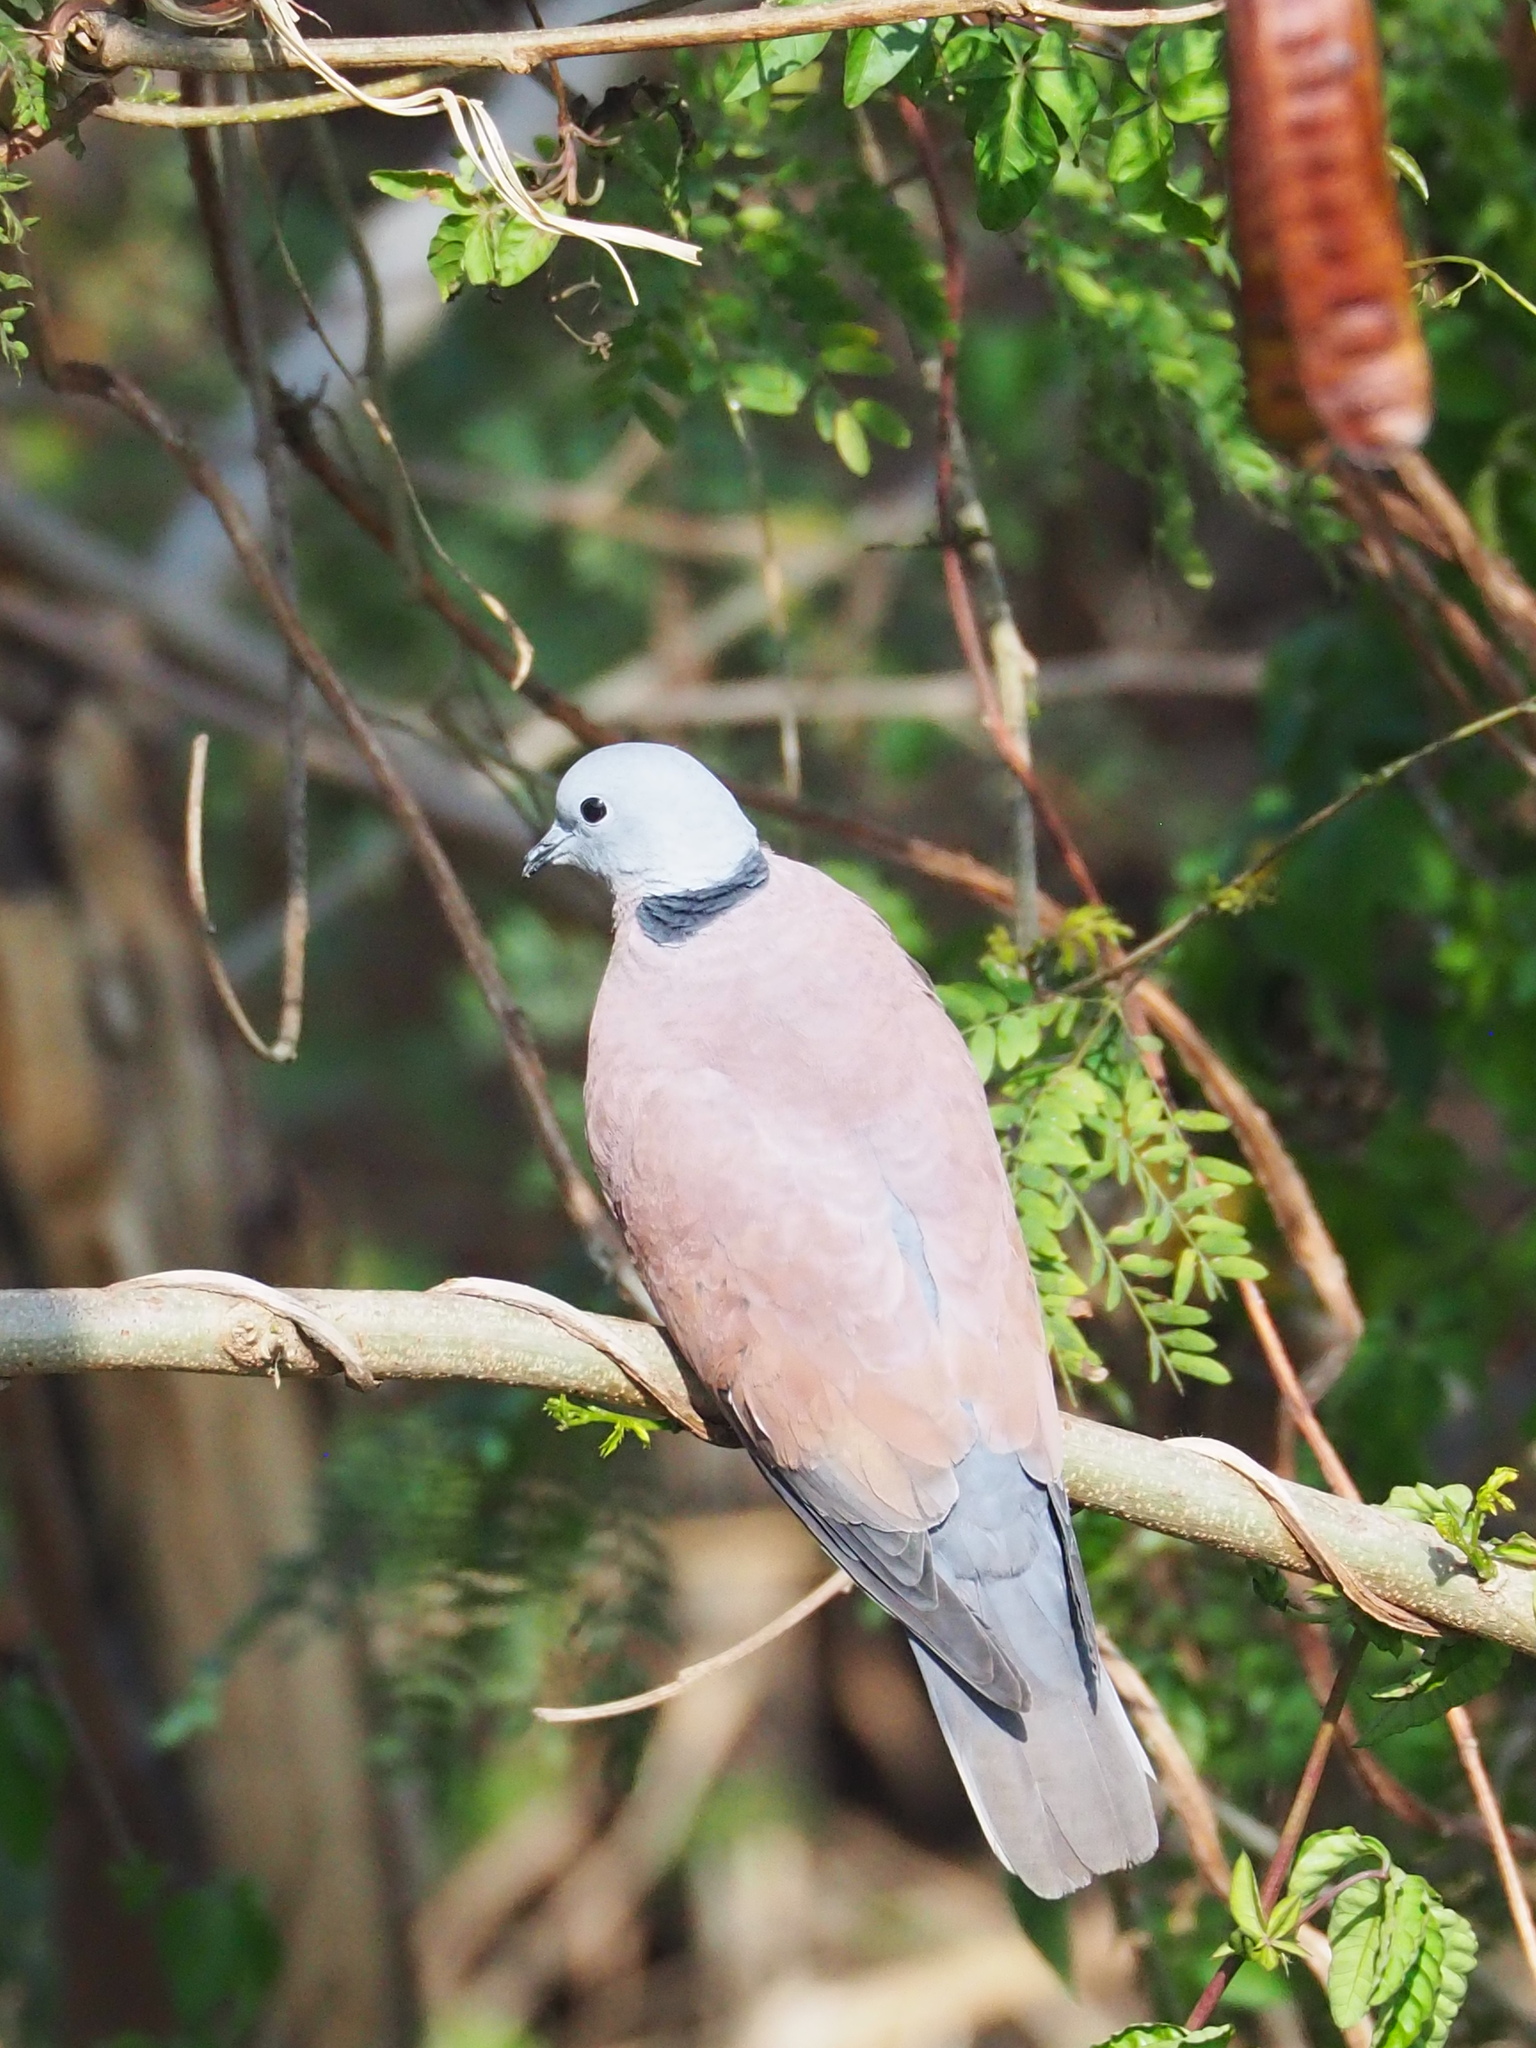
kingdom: Animalia
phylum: Chordata
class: Aves
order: Columbiformes
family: Columbidae
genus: Streptopelia
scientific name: Streptopelia tranquebarica
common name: Red turtle dove
